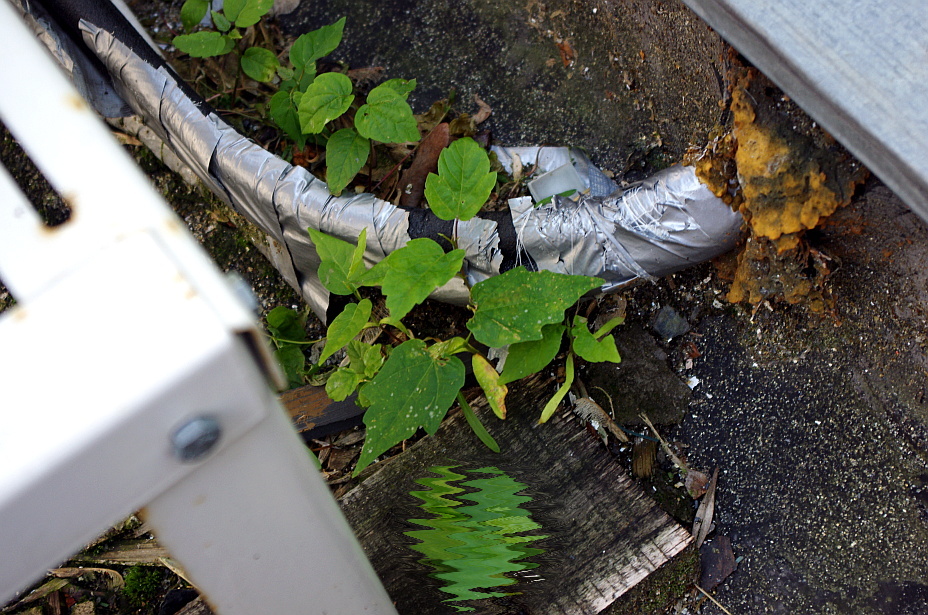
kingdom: Plantae
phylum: Tracheophyta
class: Magnoliopsida
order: Sapindales
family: Sapindaceae
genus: Acer
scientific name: Acer negundo
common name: Ashleaf maple
